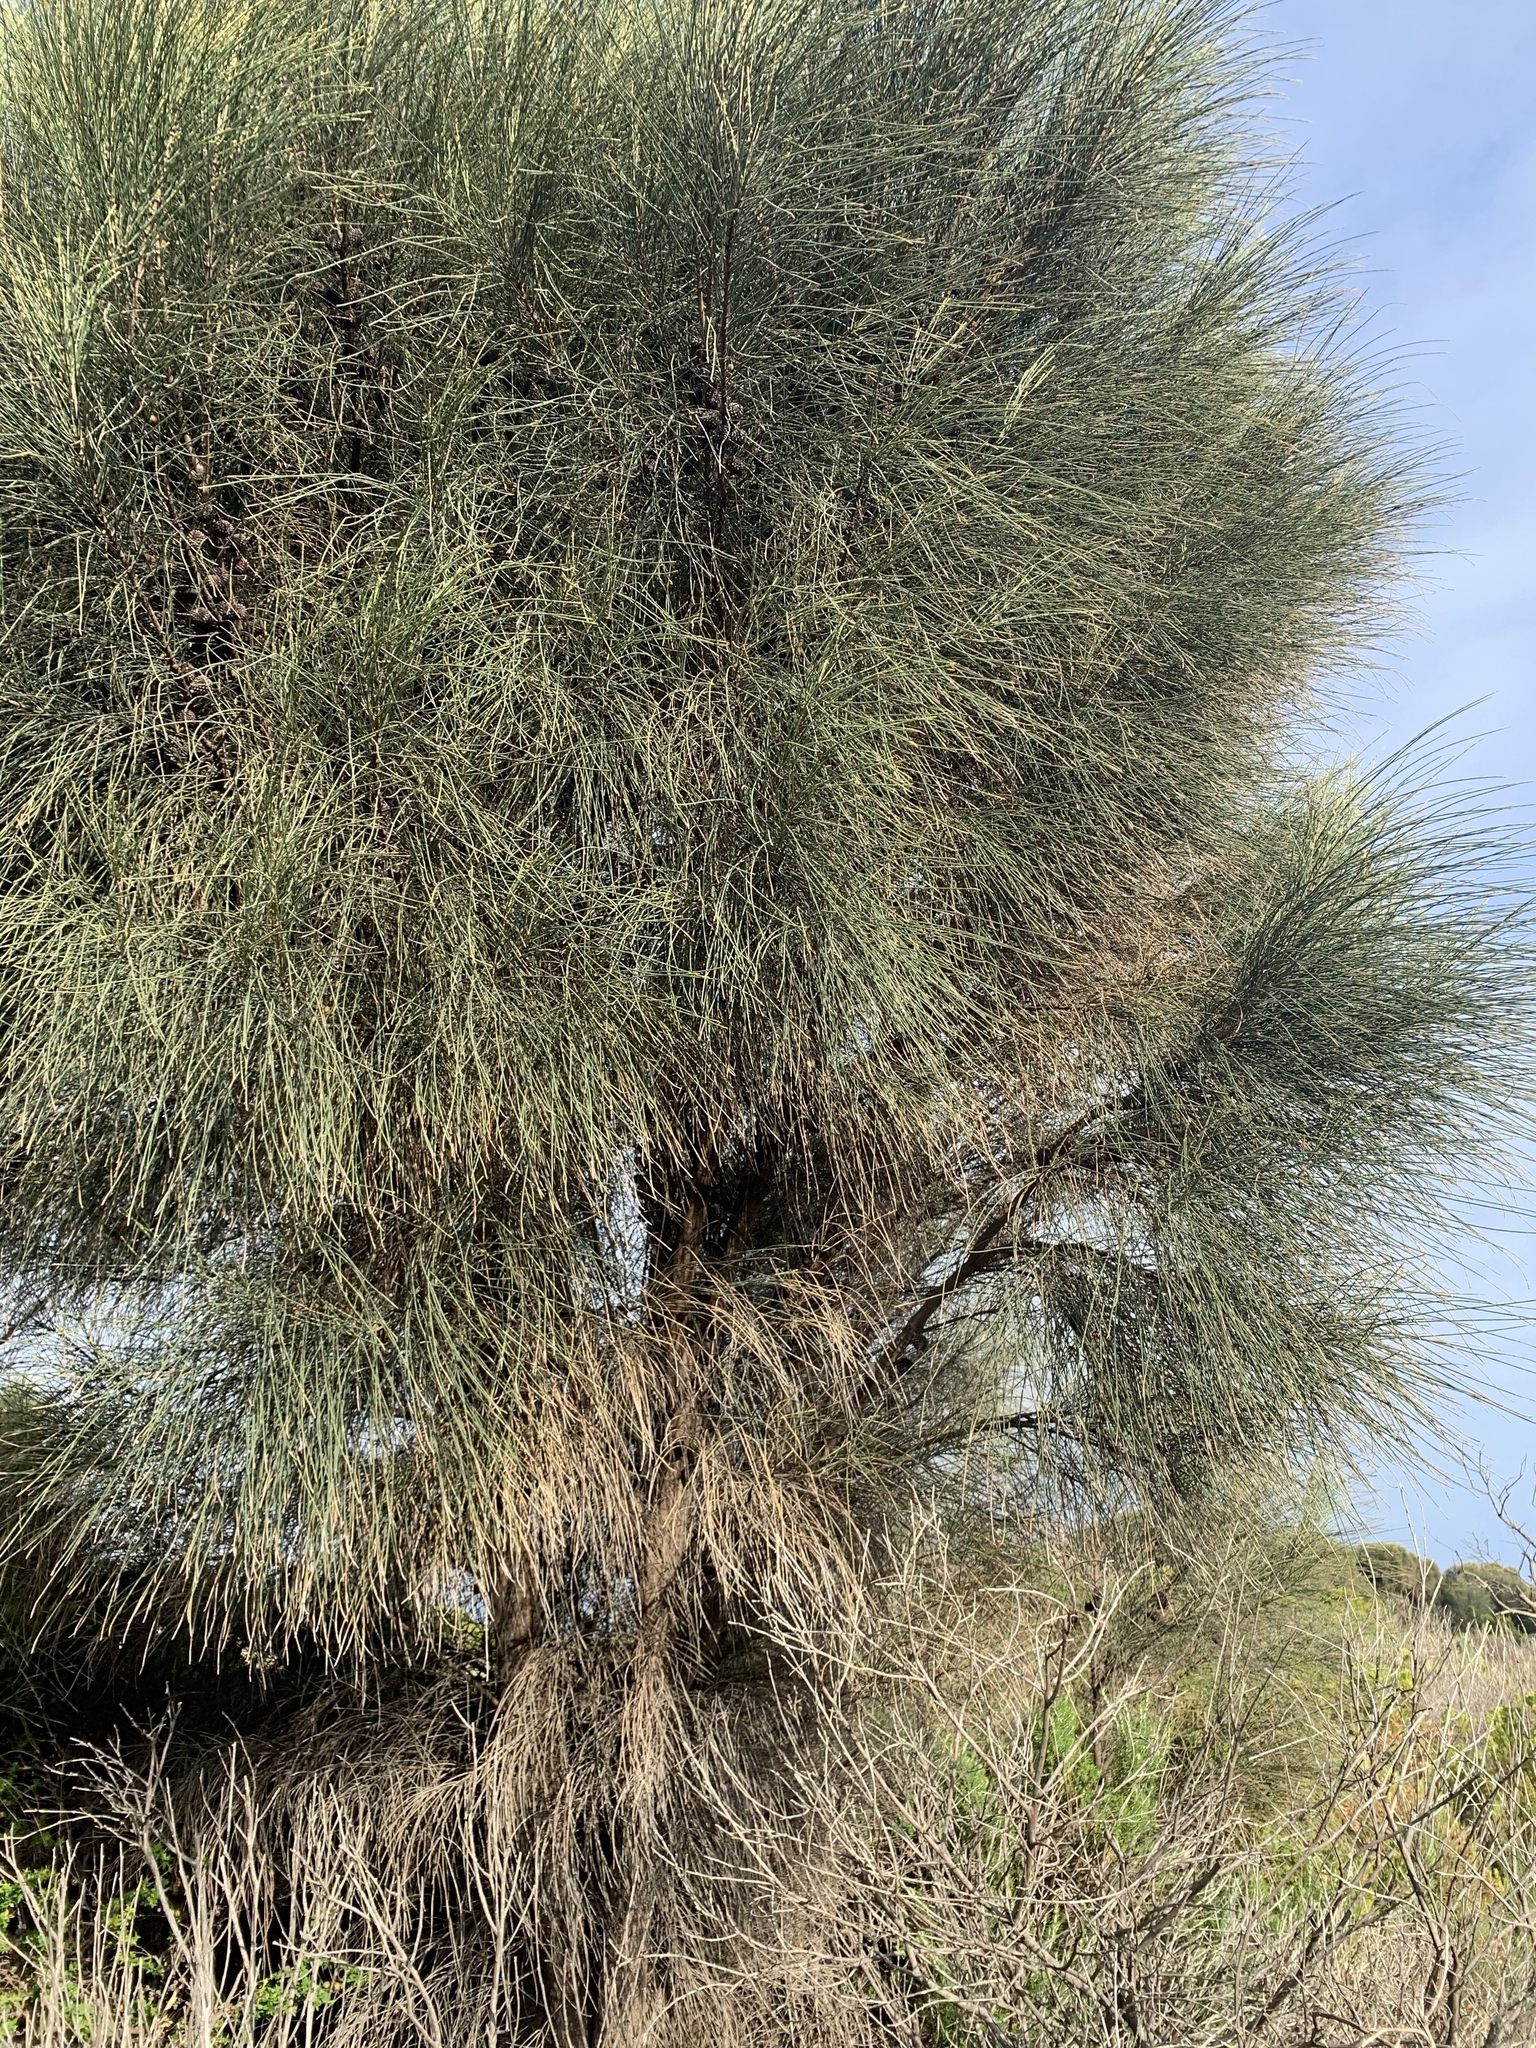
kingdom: Plantae
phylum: Tracheophyta
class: Magnoliopsida
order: Fagales
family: Casuarinaceae
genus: Allocasuarina
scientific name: Allocasuarina verticillata
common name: Drooping she-oak
